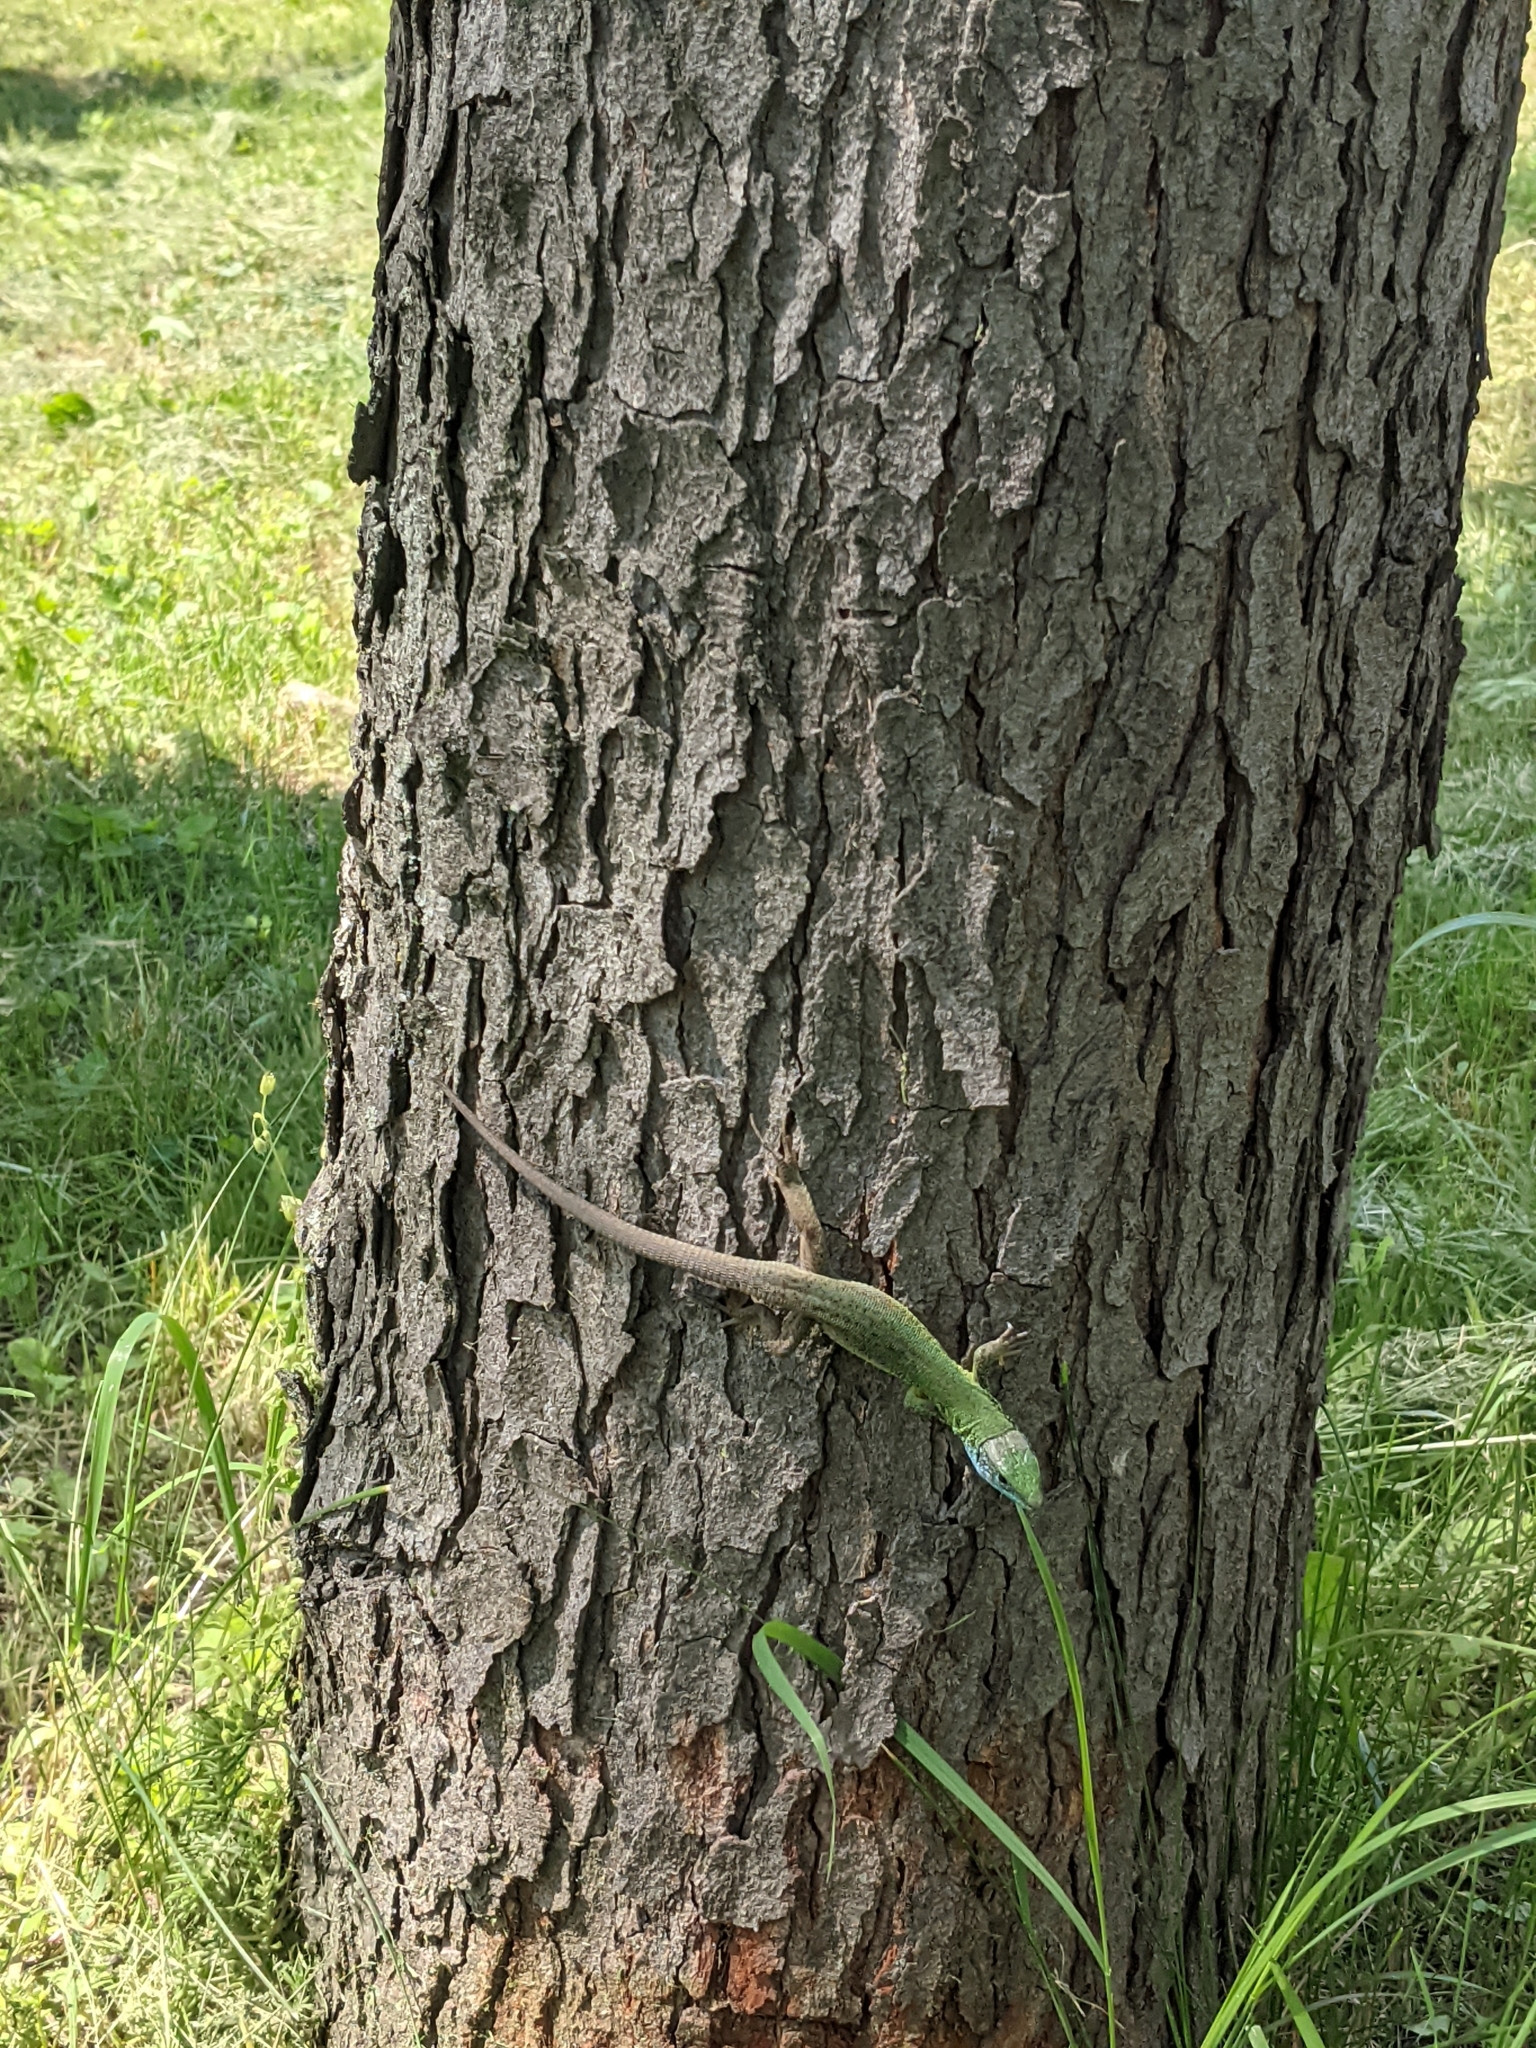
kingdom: Animalia
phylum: Chordata
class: Squamata
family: Lacertidae
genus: Lacerta
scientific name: Lacerta viridis
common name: European green lizard
